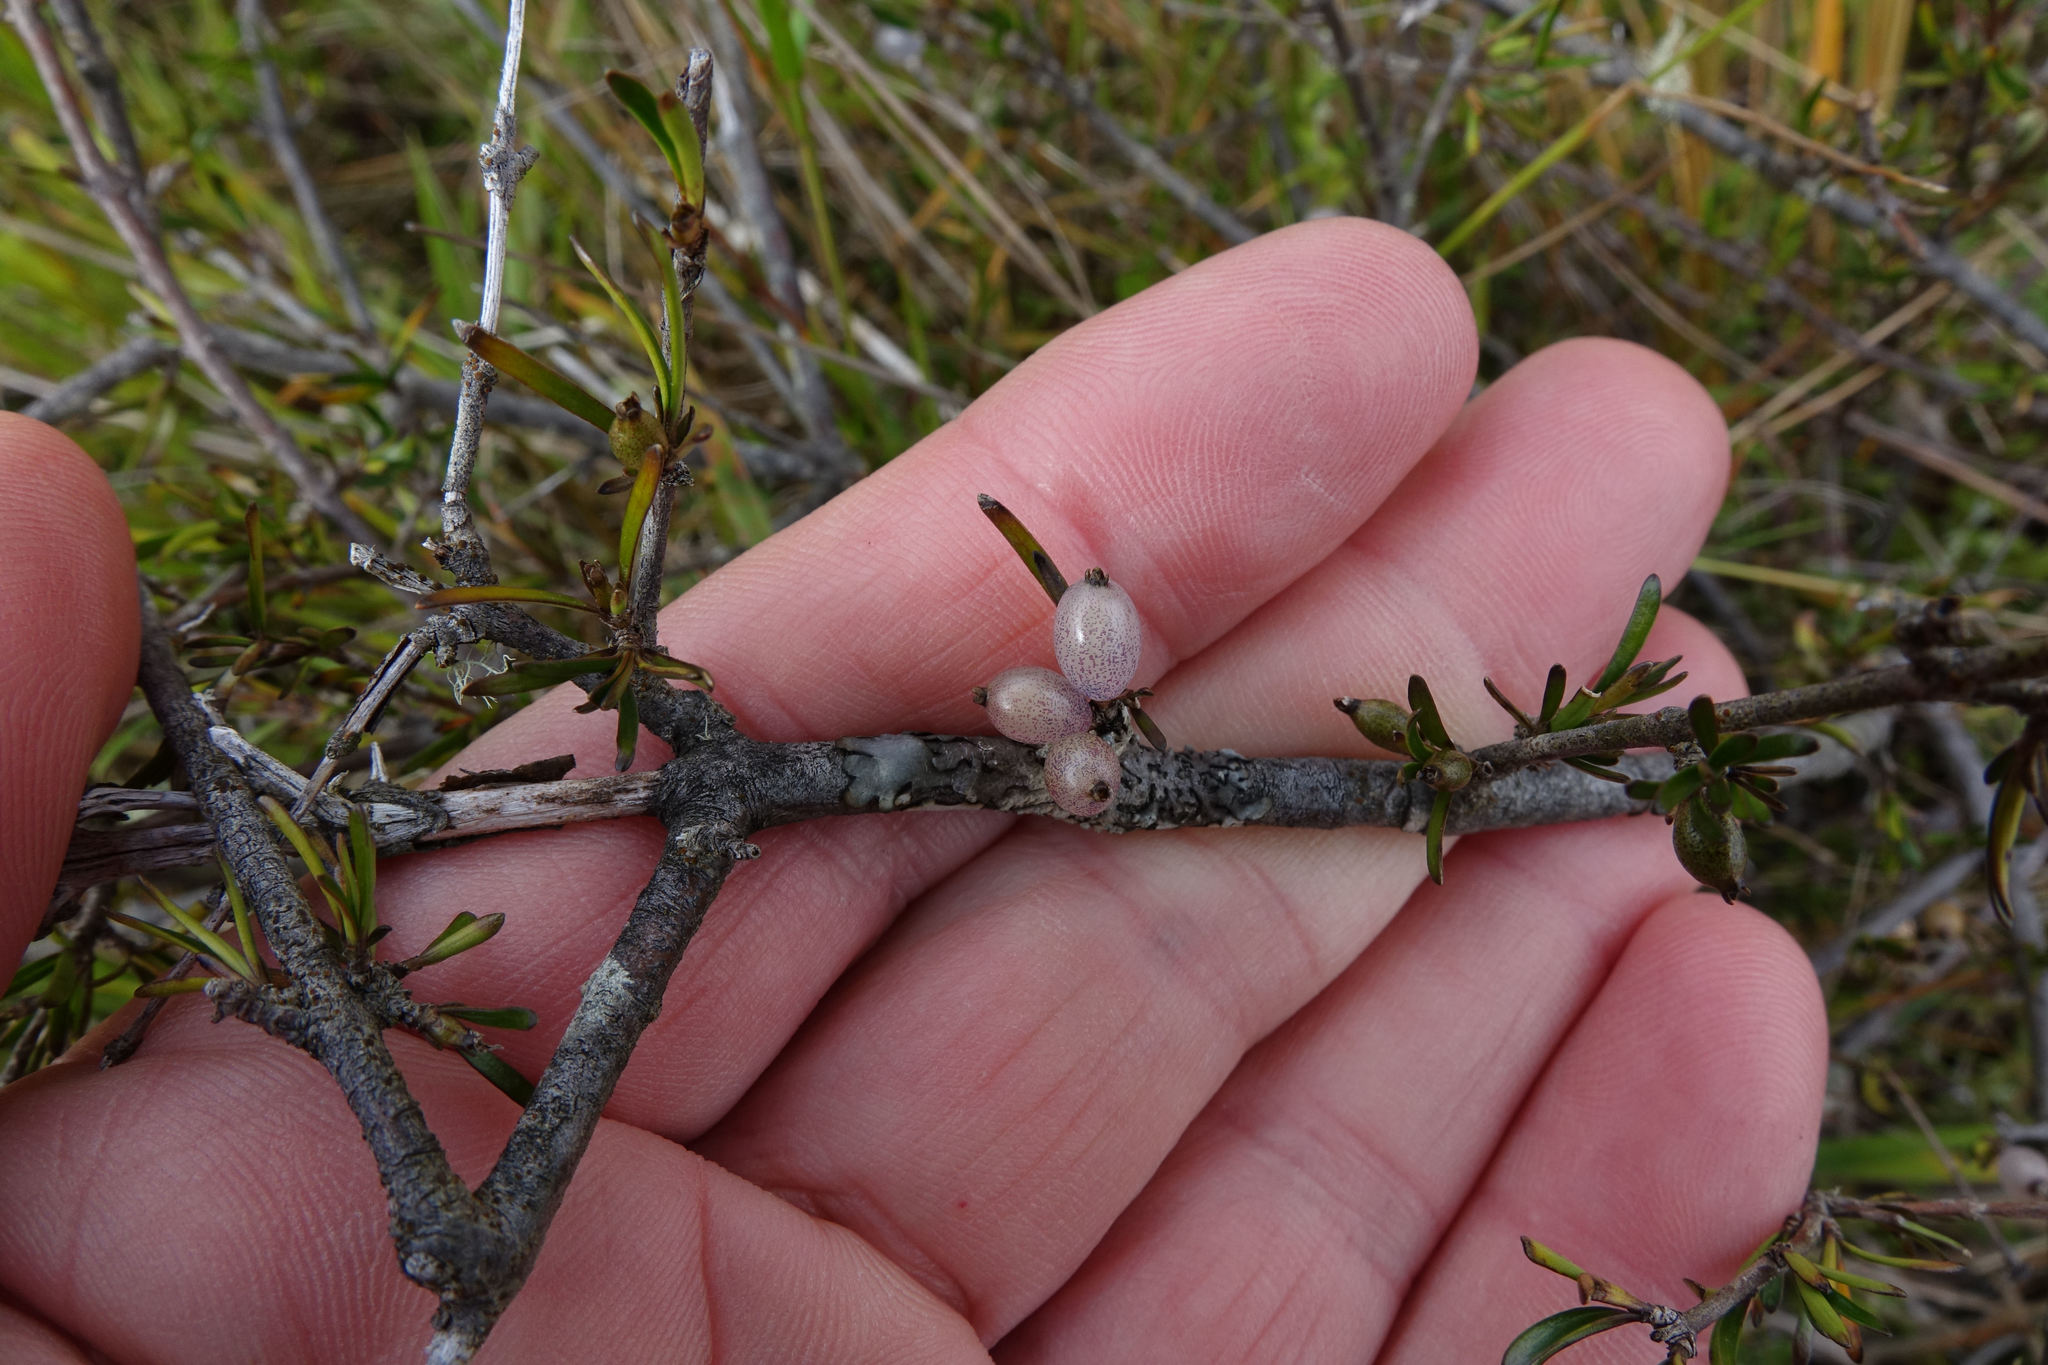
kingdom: Plantae
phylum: Tracheophyta
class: Magnoliopsida
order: Gentianales
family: Rubiaceae
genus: Coprosma
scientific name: Coprosma elatirioides
